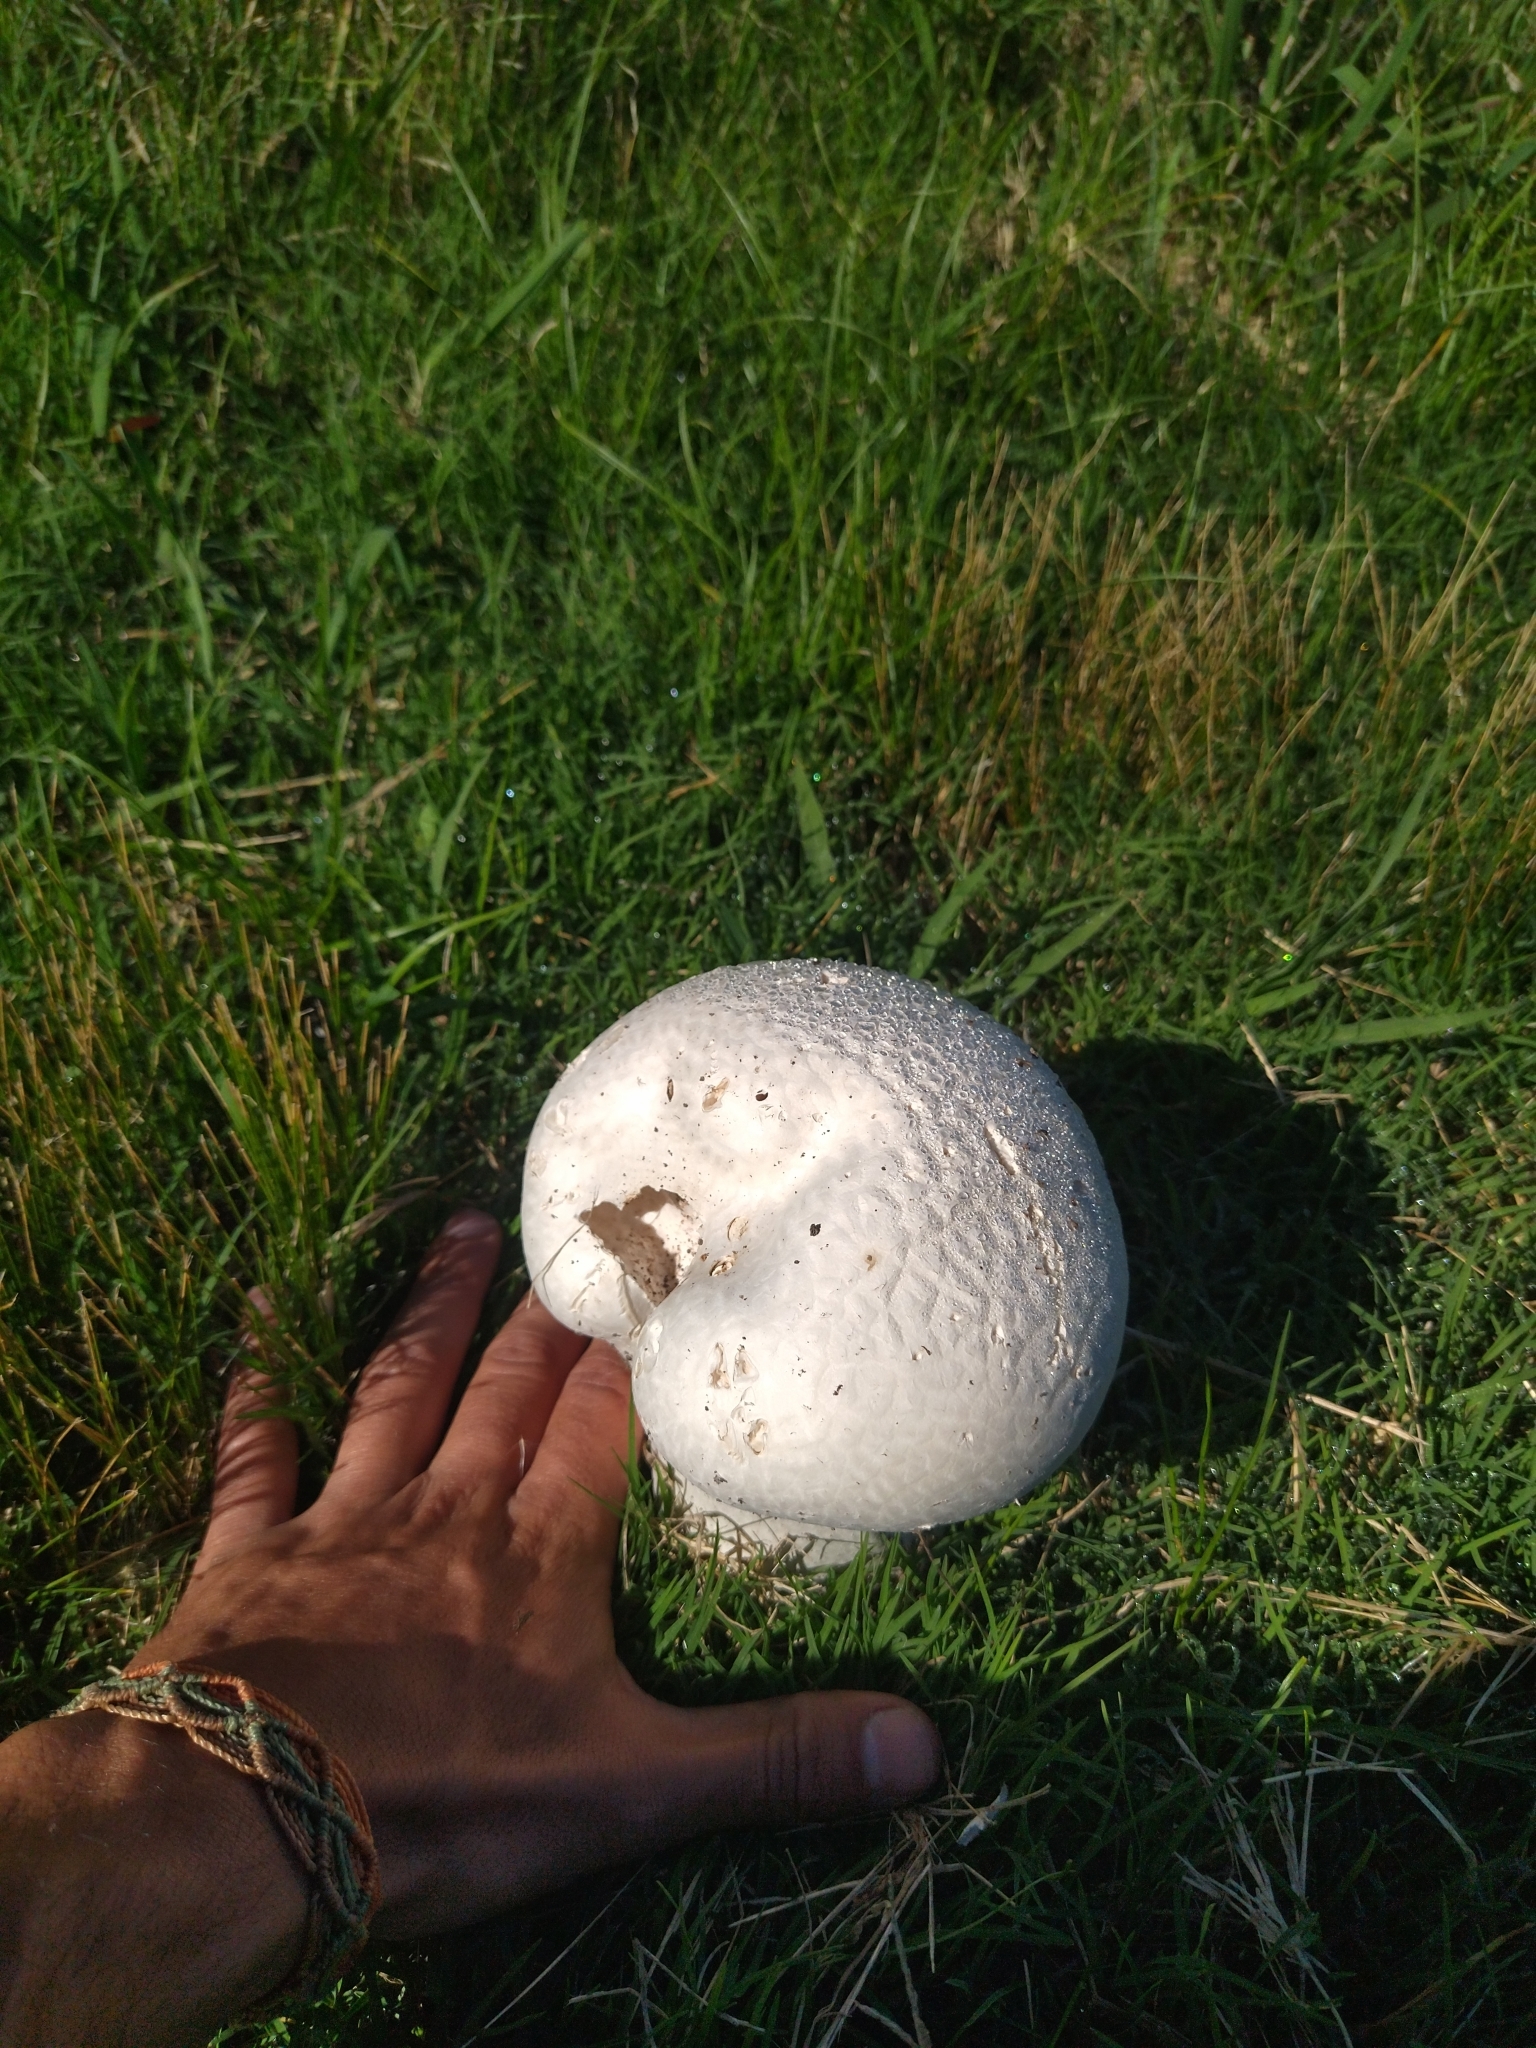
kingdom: Fungi
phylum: Basidiomycota
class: Agaricomycetes
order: Agaricales
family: Lycoperdaceae
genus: Calvatia
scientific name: Calvatia cyathiformis
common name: Purple-spored puffball
